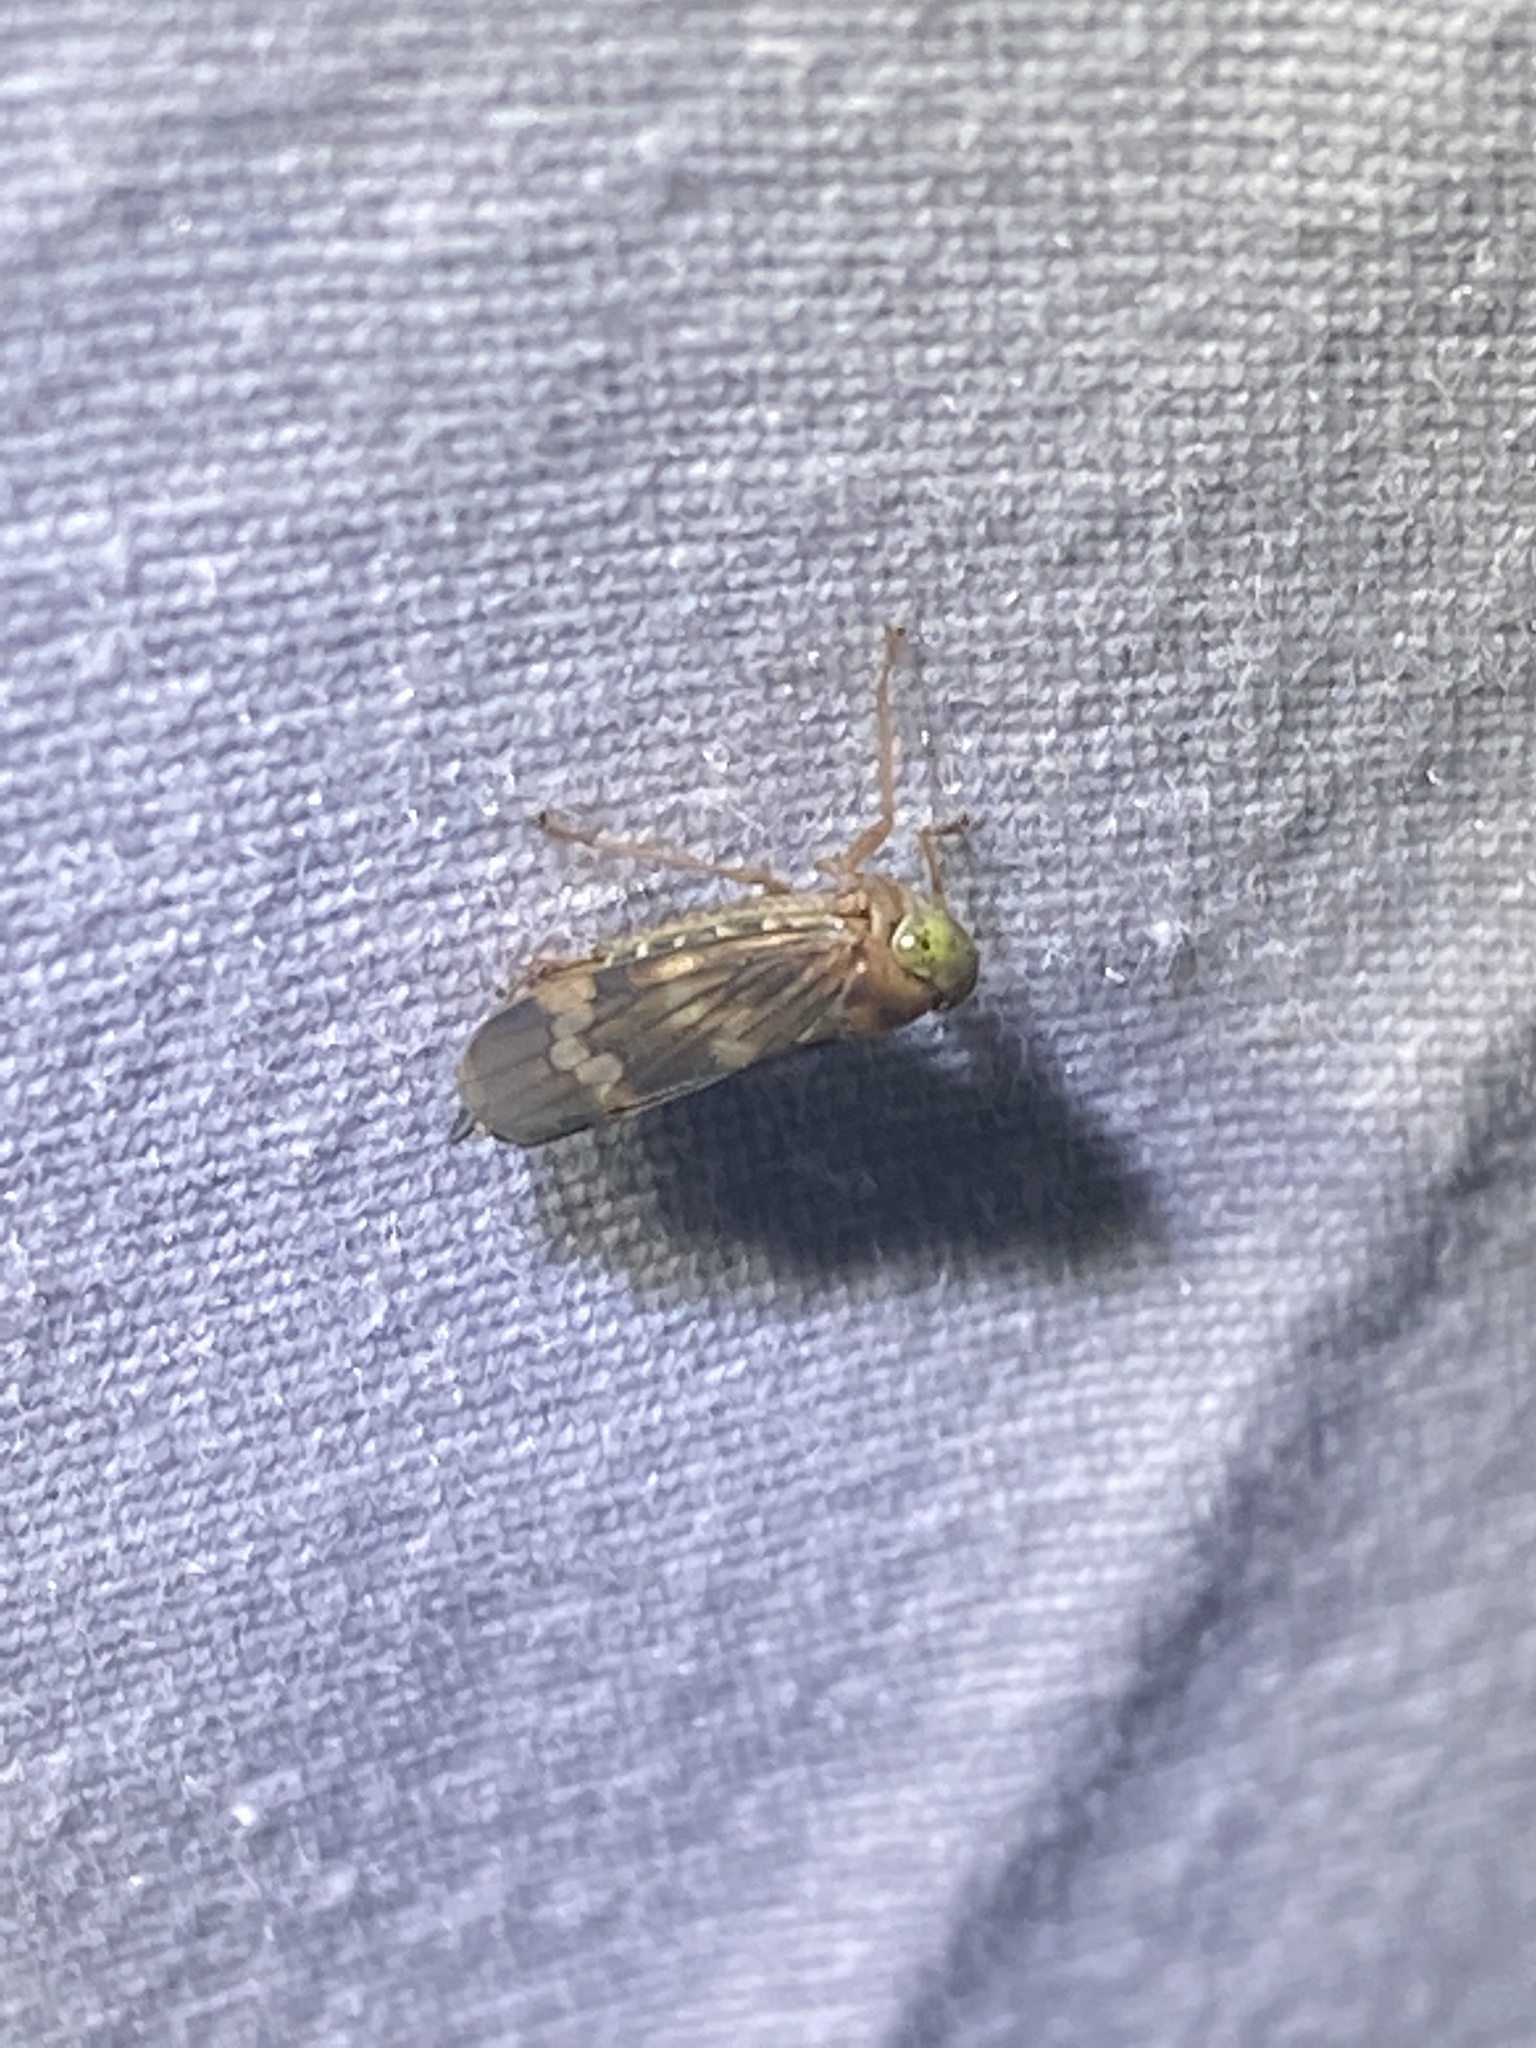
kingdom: Animalia
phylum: Arthropoda
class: Insecta
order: Hemiptera
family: Cicadellidae
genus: Jikradia
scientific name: Jikradia olitoria
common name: Coppery leafhopper
